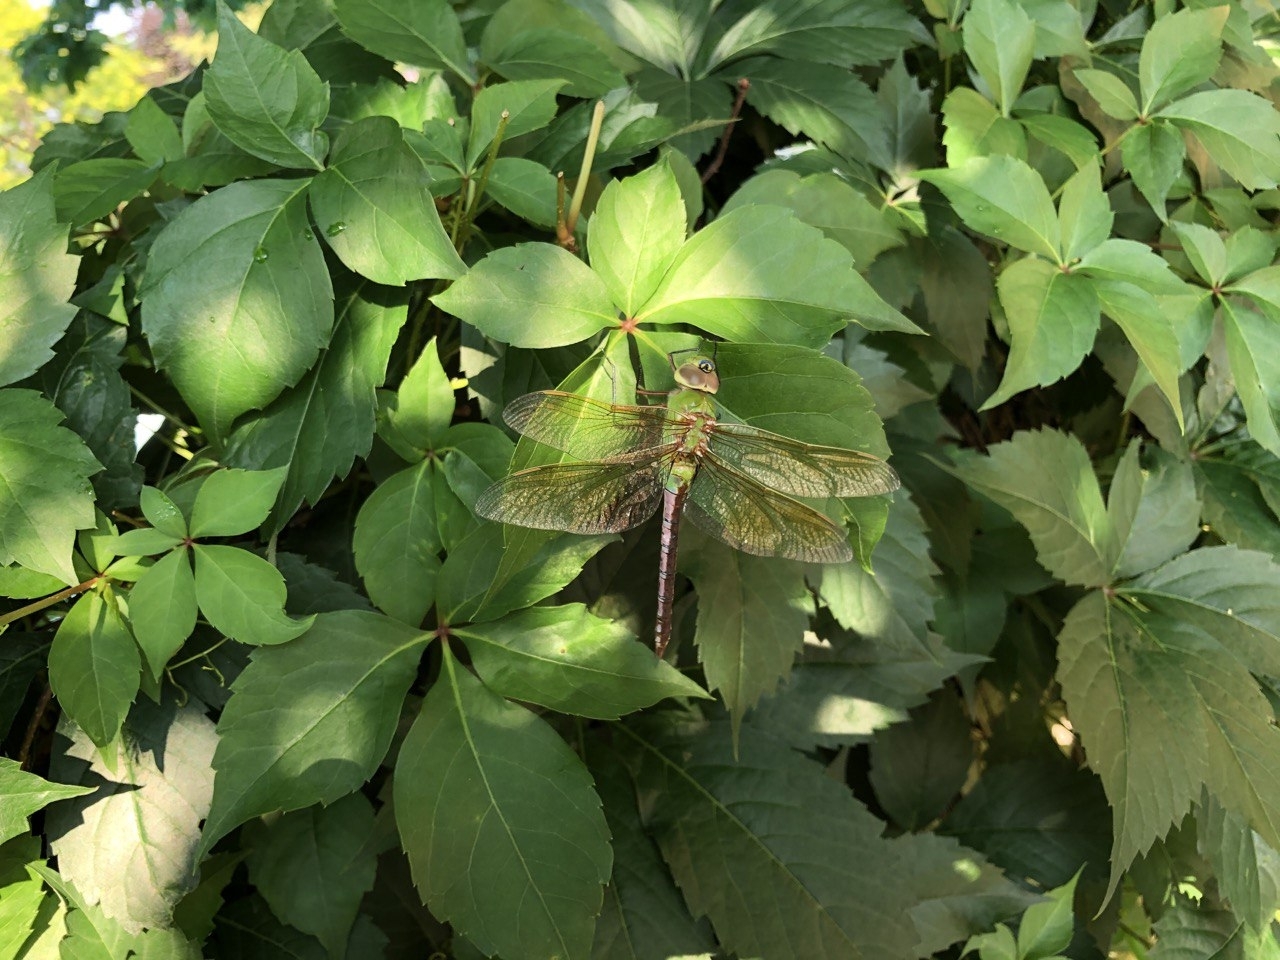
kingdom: Animalia
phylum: Arthropoda
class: Insecta
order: Odonata
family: Aeshnidae
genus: Anax
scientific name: Anax junius
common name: Common green darner
